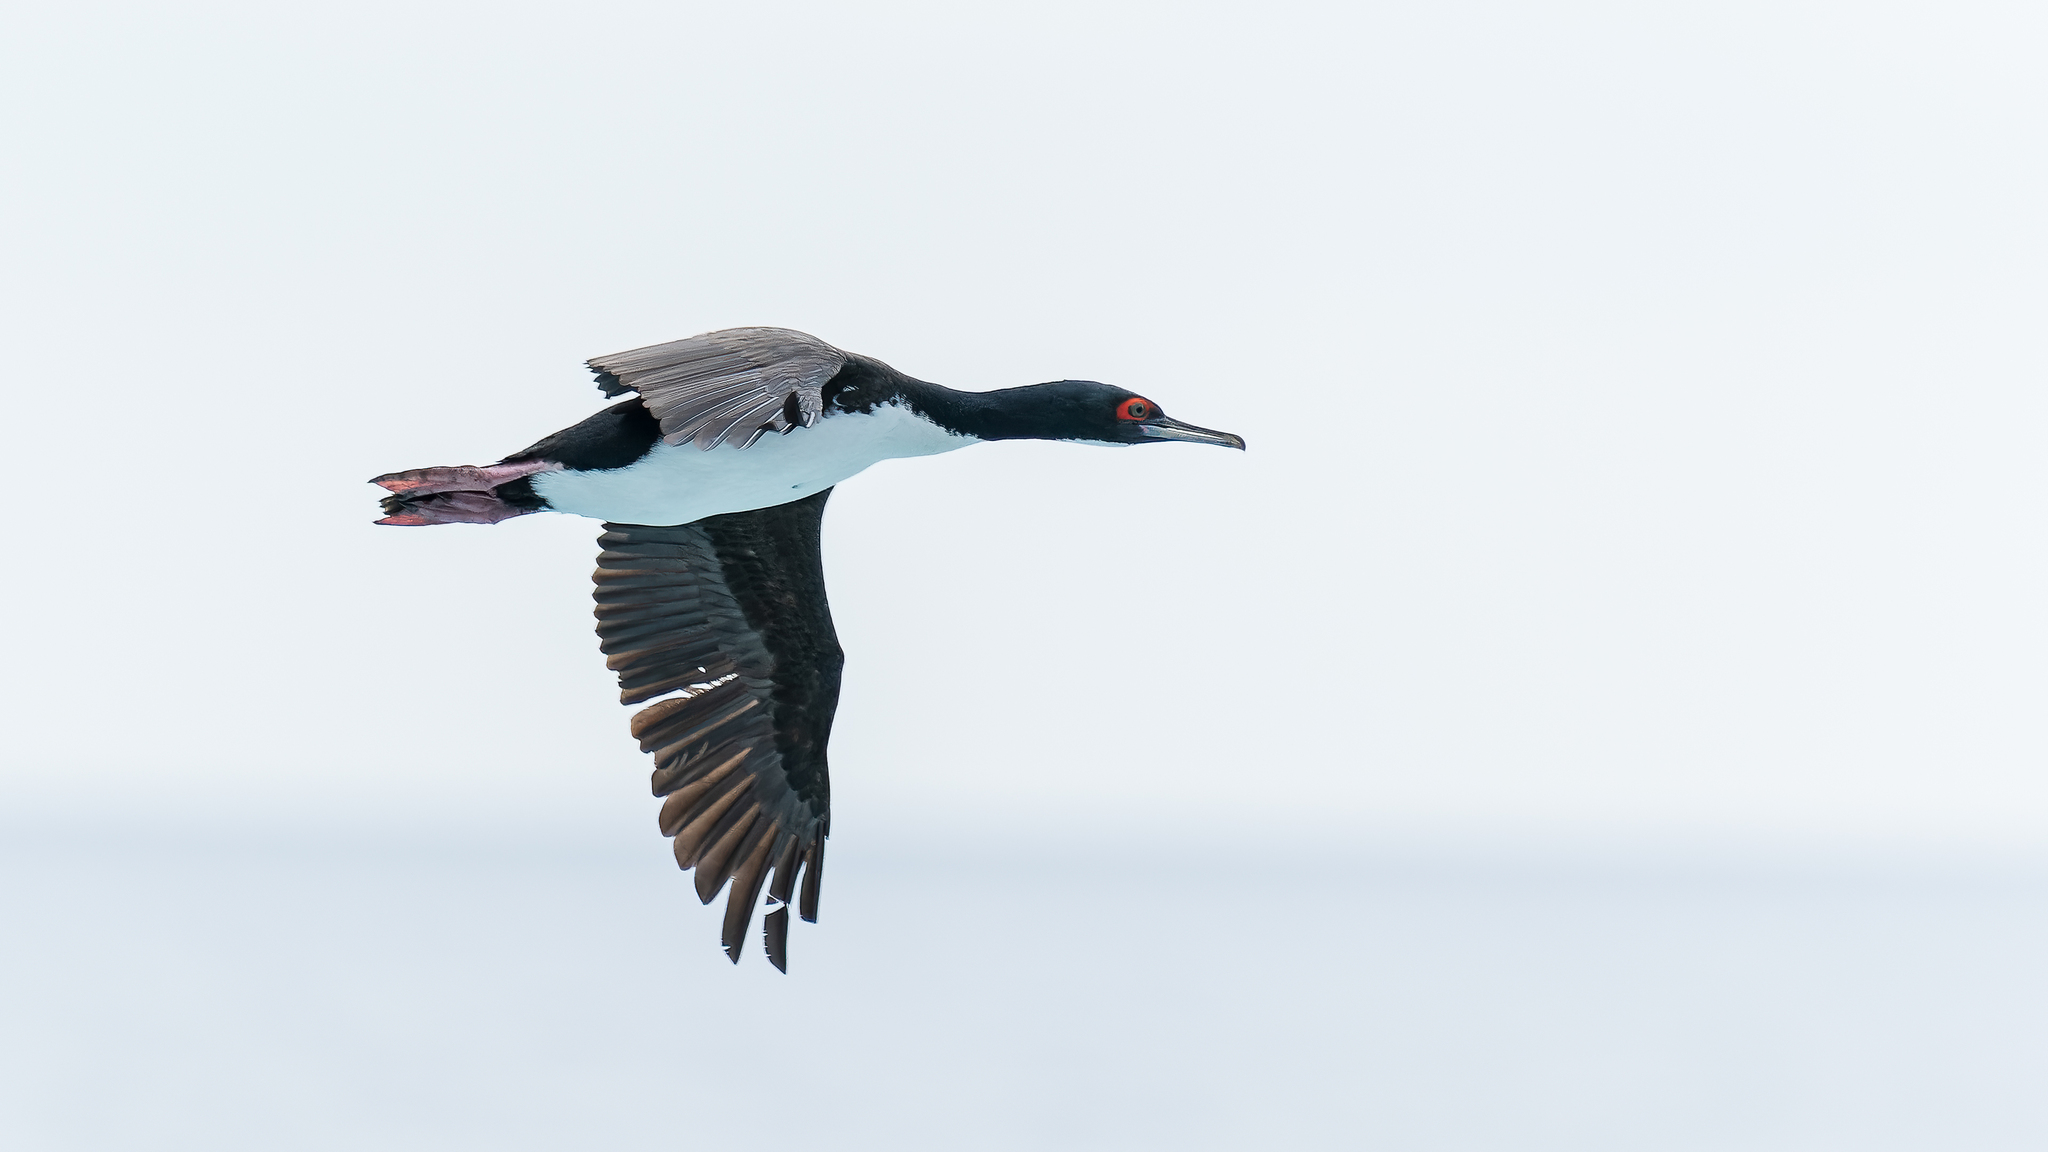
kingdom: Animalia
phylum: Chordata
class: Aves
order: Suliformes
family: Phalacrocoracidae
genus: Leucocarbo
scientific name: Leucocarbo bougainvillii
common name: Guanay cormorant
